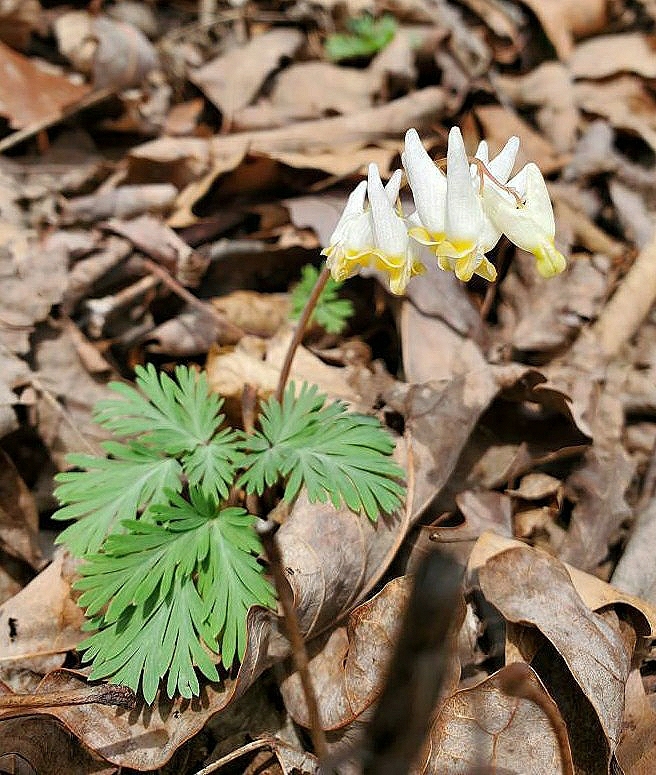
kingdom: Plantae
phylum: Tracheophyta
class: Magnoliopsida
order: Ranunculales
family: Papaveraceae
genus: Dicentra
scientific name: Dicentra cucullaria
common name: Dutchman's breeches
